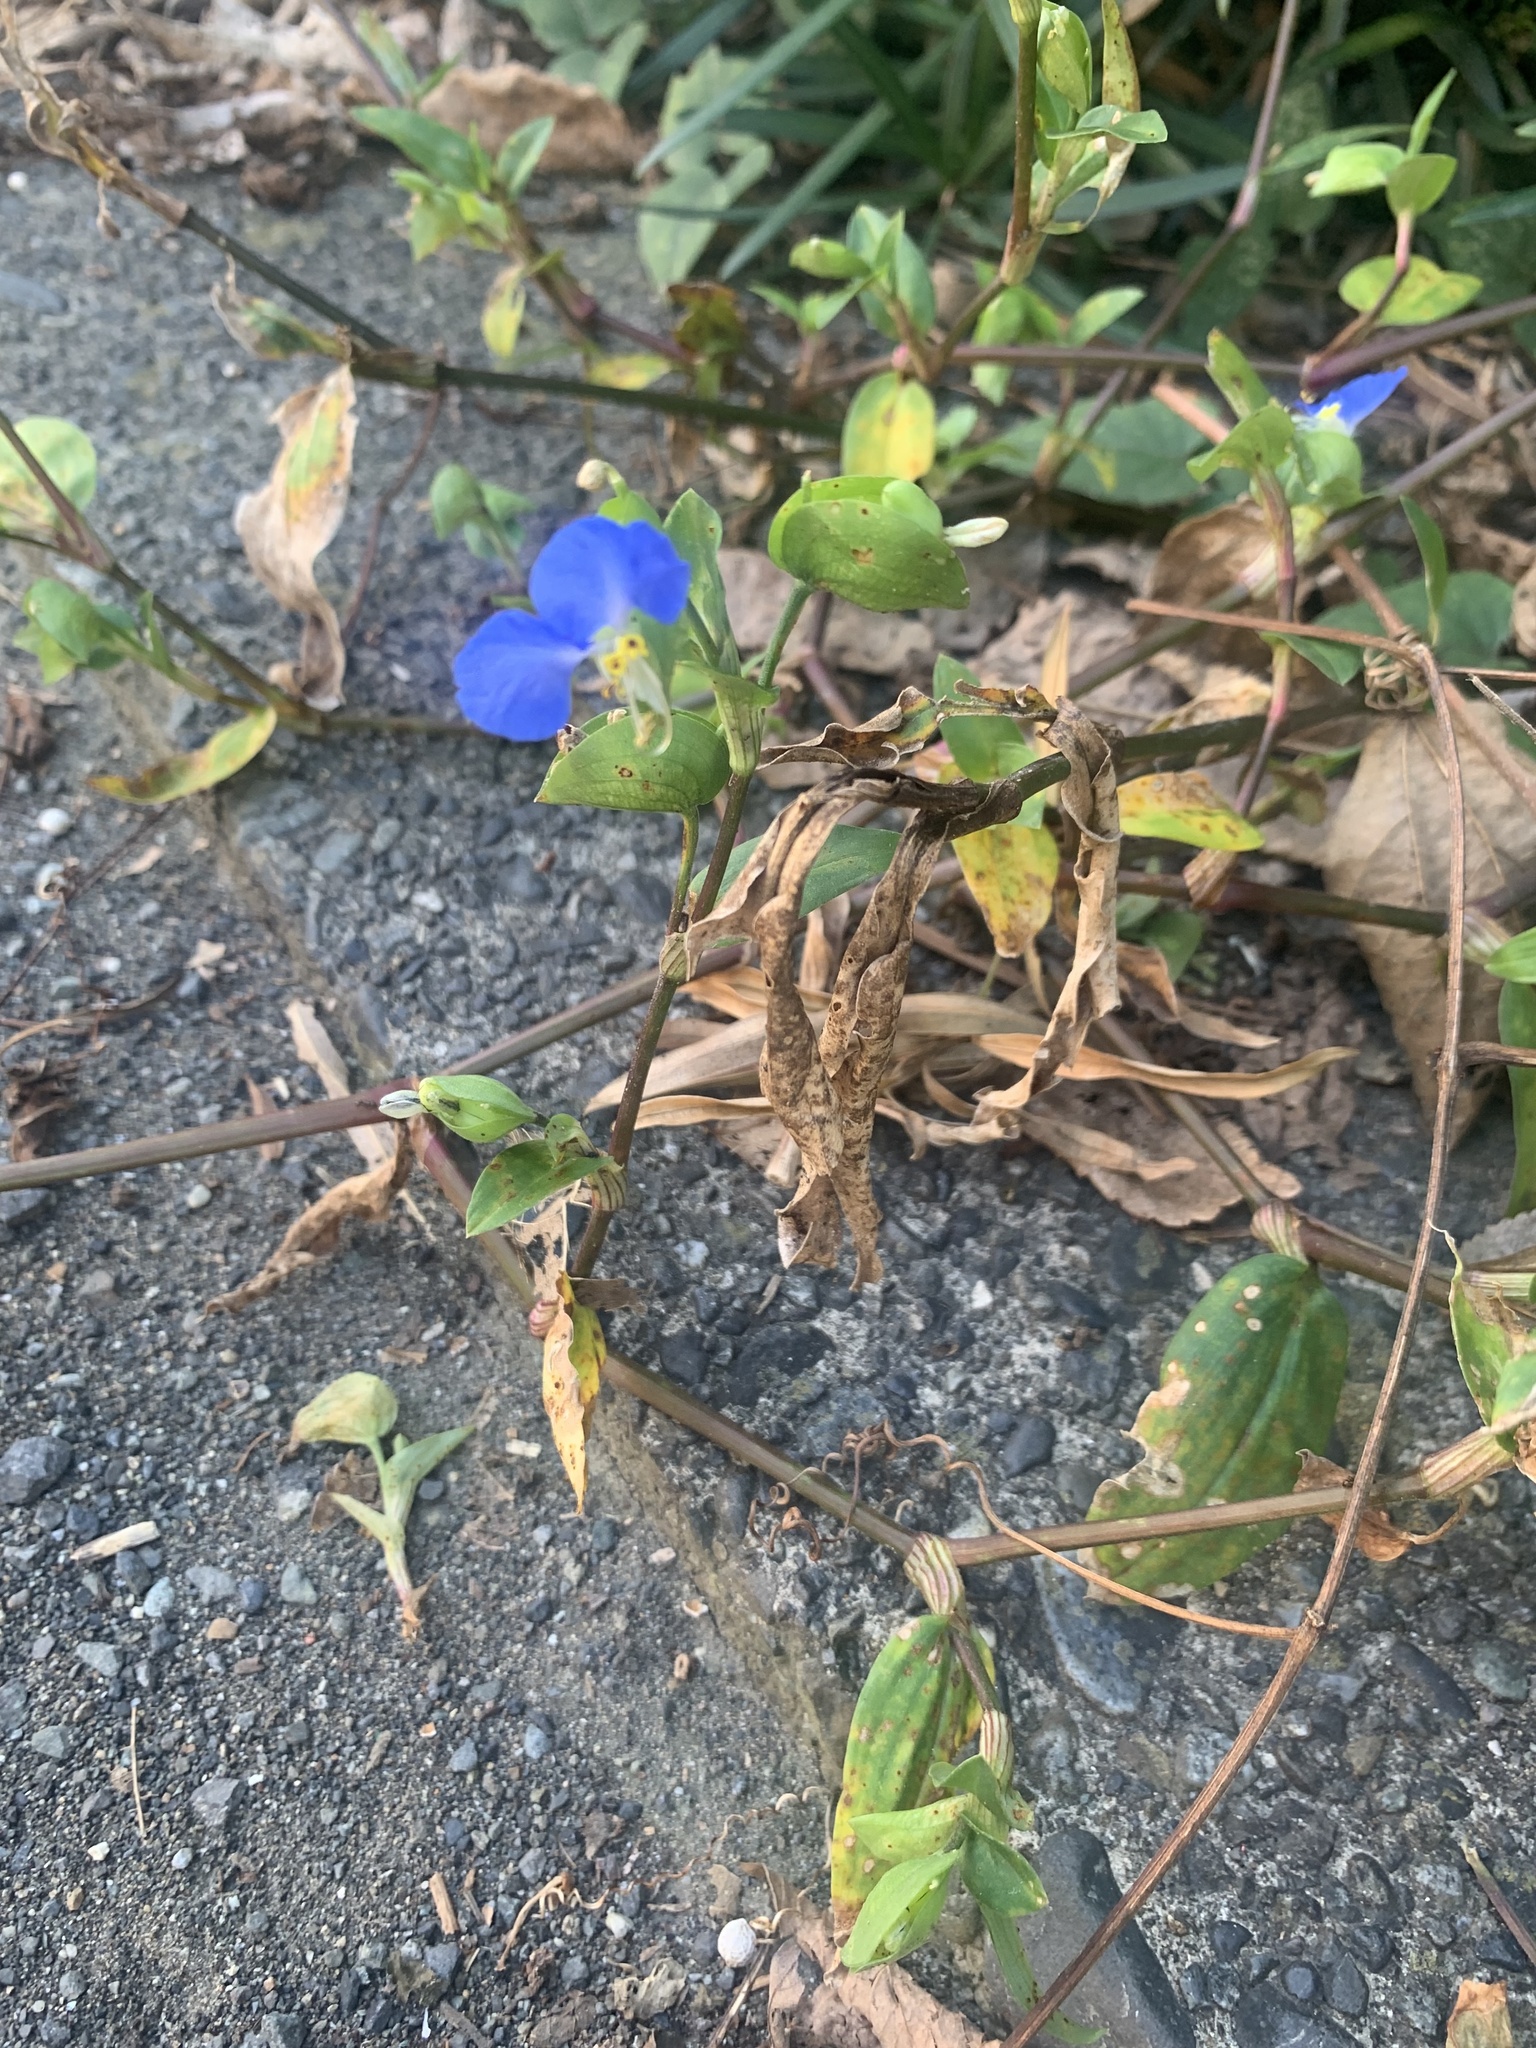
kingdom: Plantae
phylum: Tracheophyta
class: Liliopsida
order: Commelinales
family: Commelinaceae
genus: Commelina
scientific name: Commelina communis
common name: Asiatic dayflower
